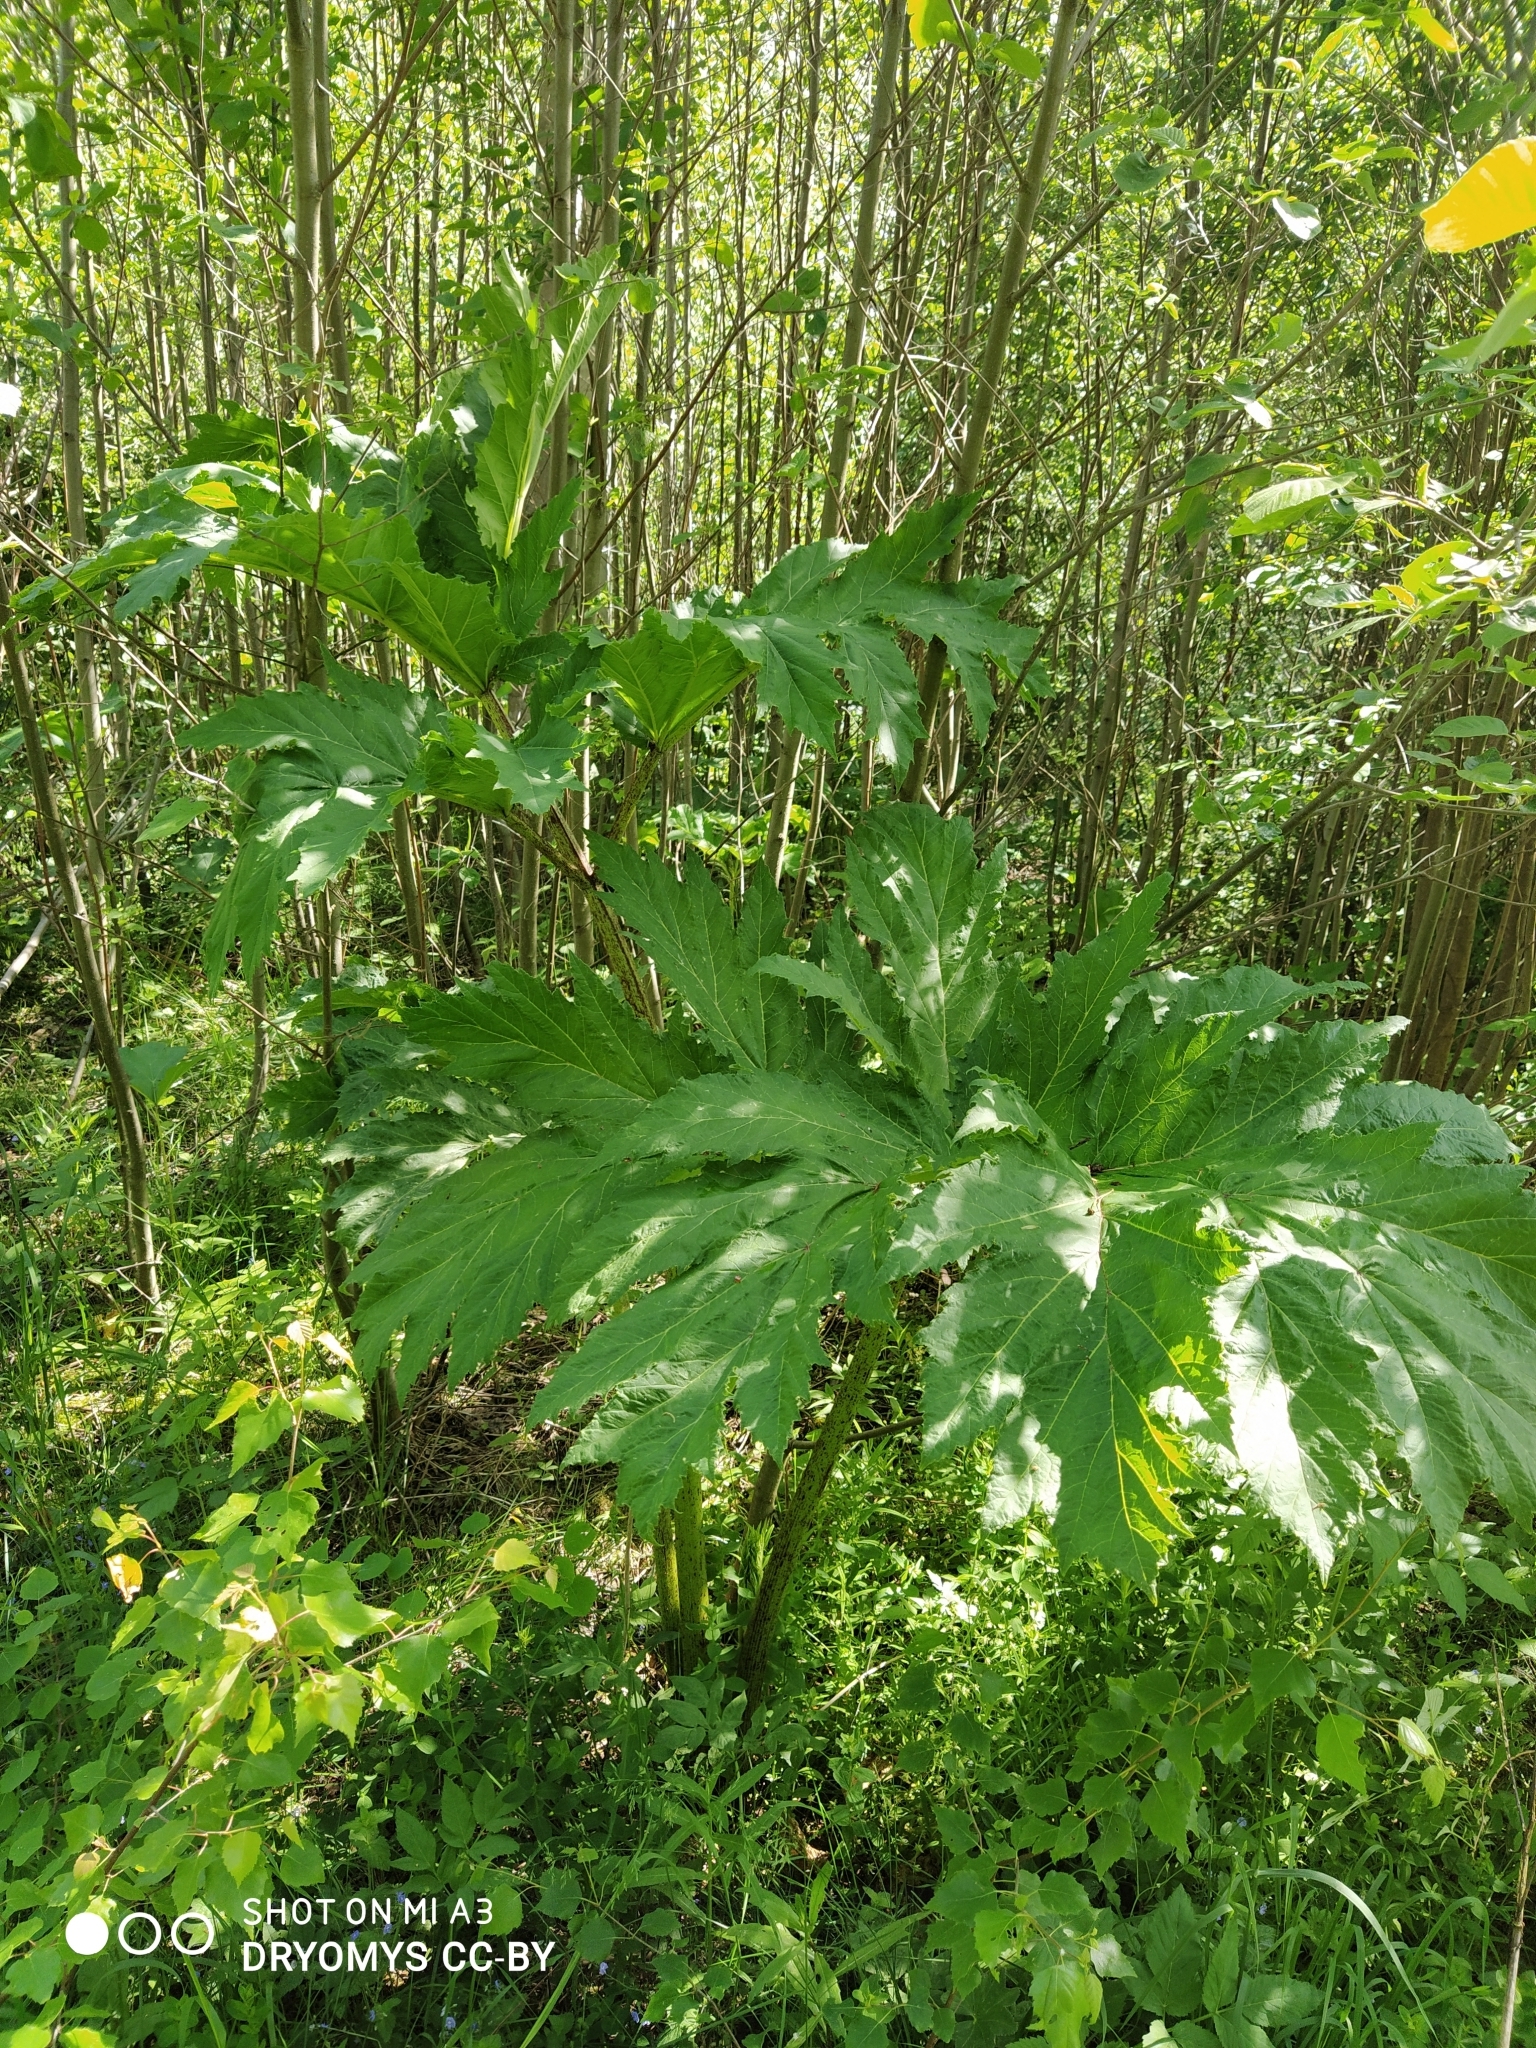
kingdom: Plantae
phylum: Tracheophyta
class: Magnoliopsida
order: Apiales
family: Apiaceae
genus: Heracleum
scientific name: Heracleum sosnowskyi
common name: Sosnowsky's hogweed
